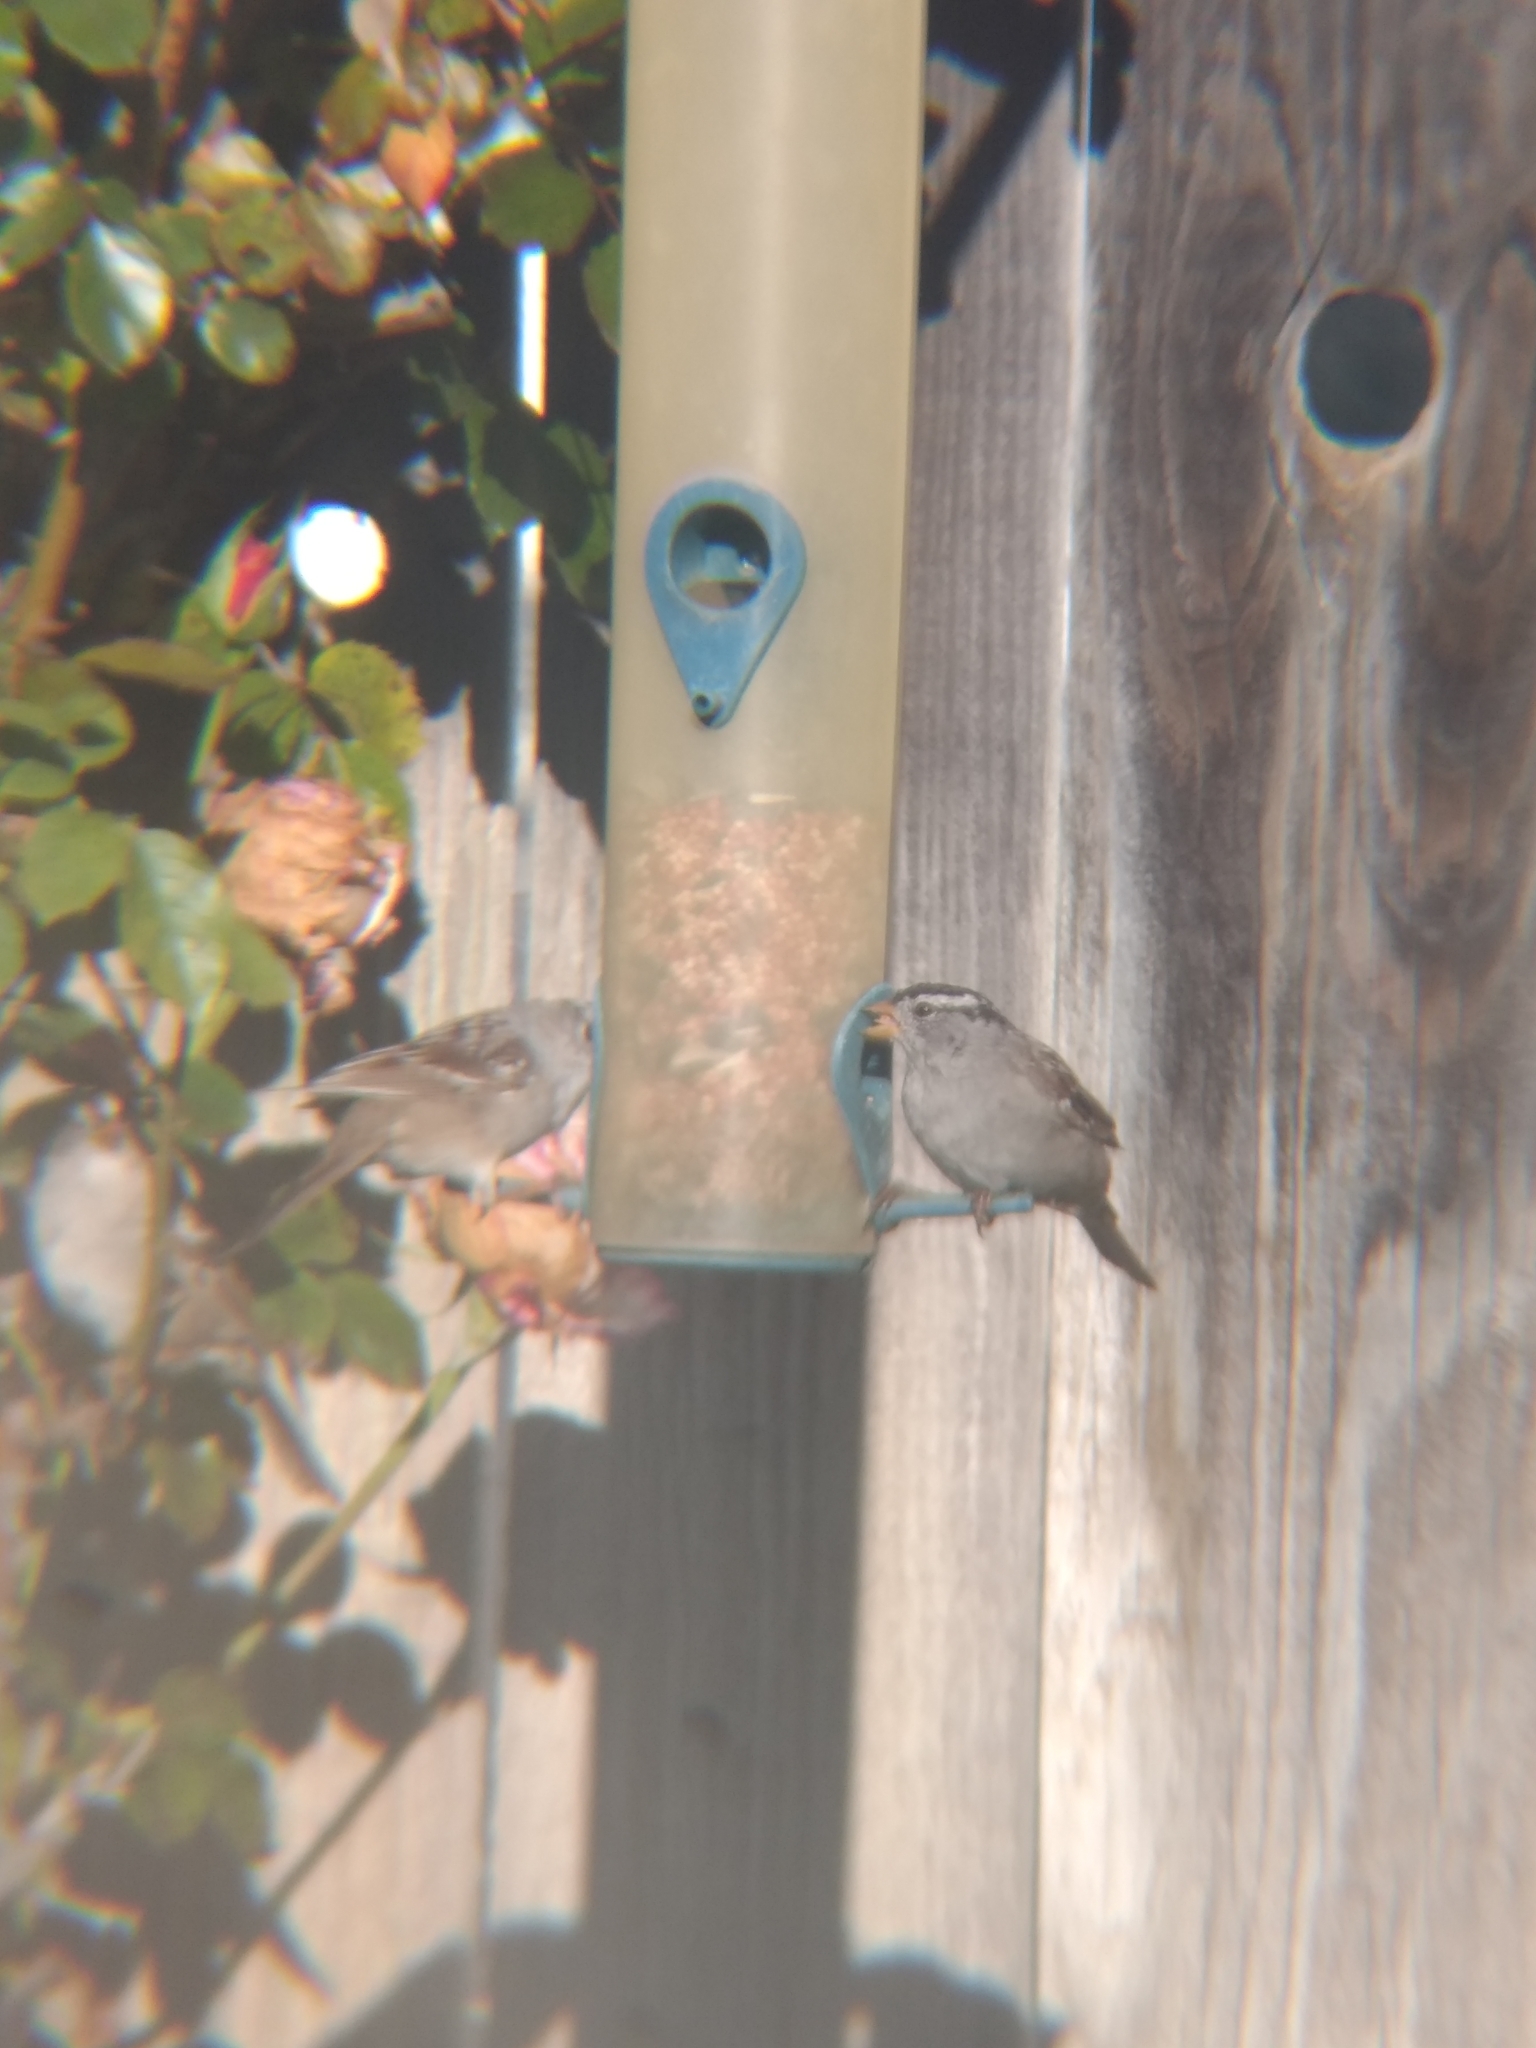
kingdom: Animalia
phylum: Chordata
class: Aves
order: Passeriformes
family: Passerellidae
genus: Zonotrichia
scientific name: Zonotrichia leucophrys
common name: White-crowned sparrow
